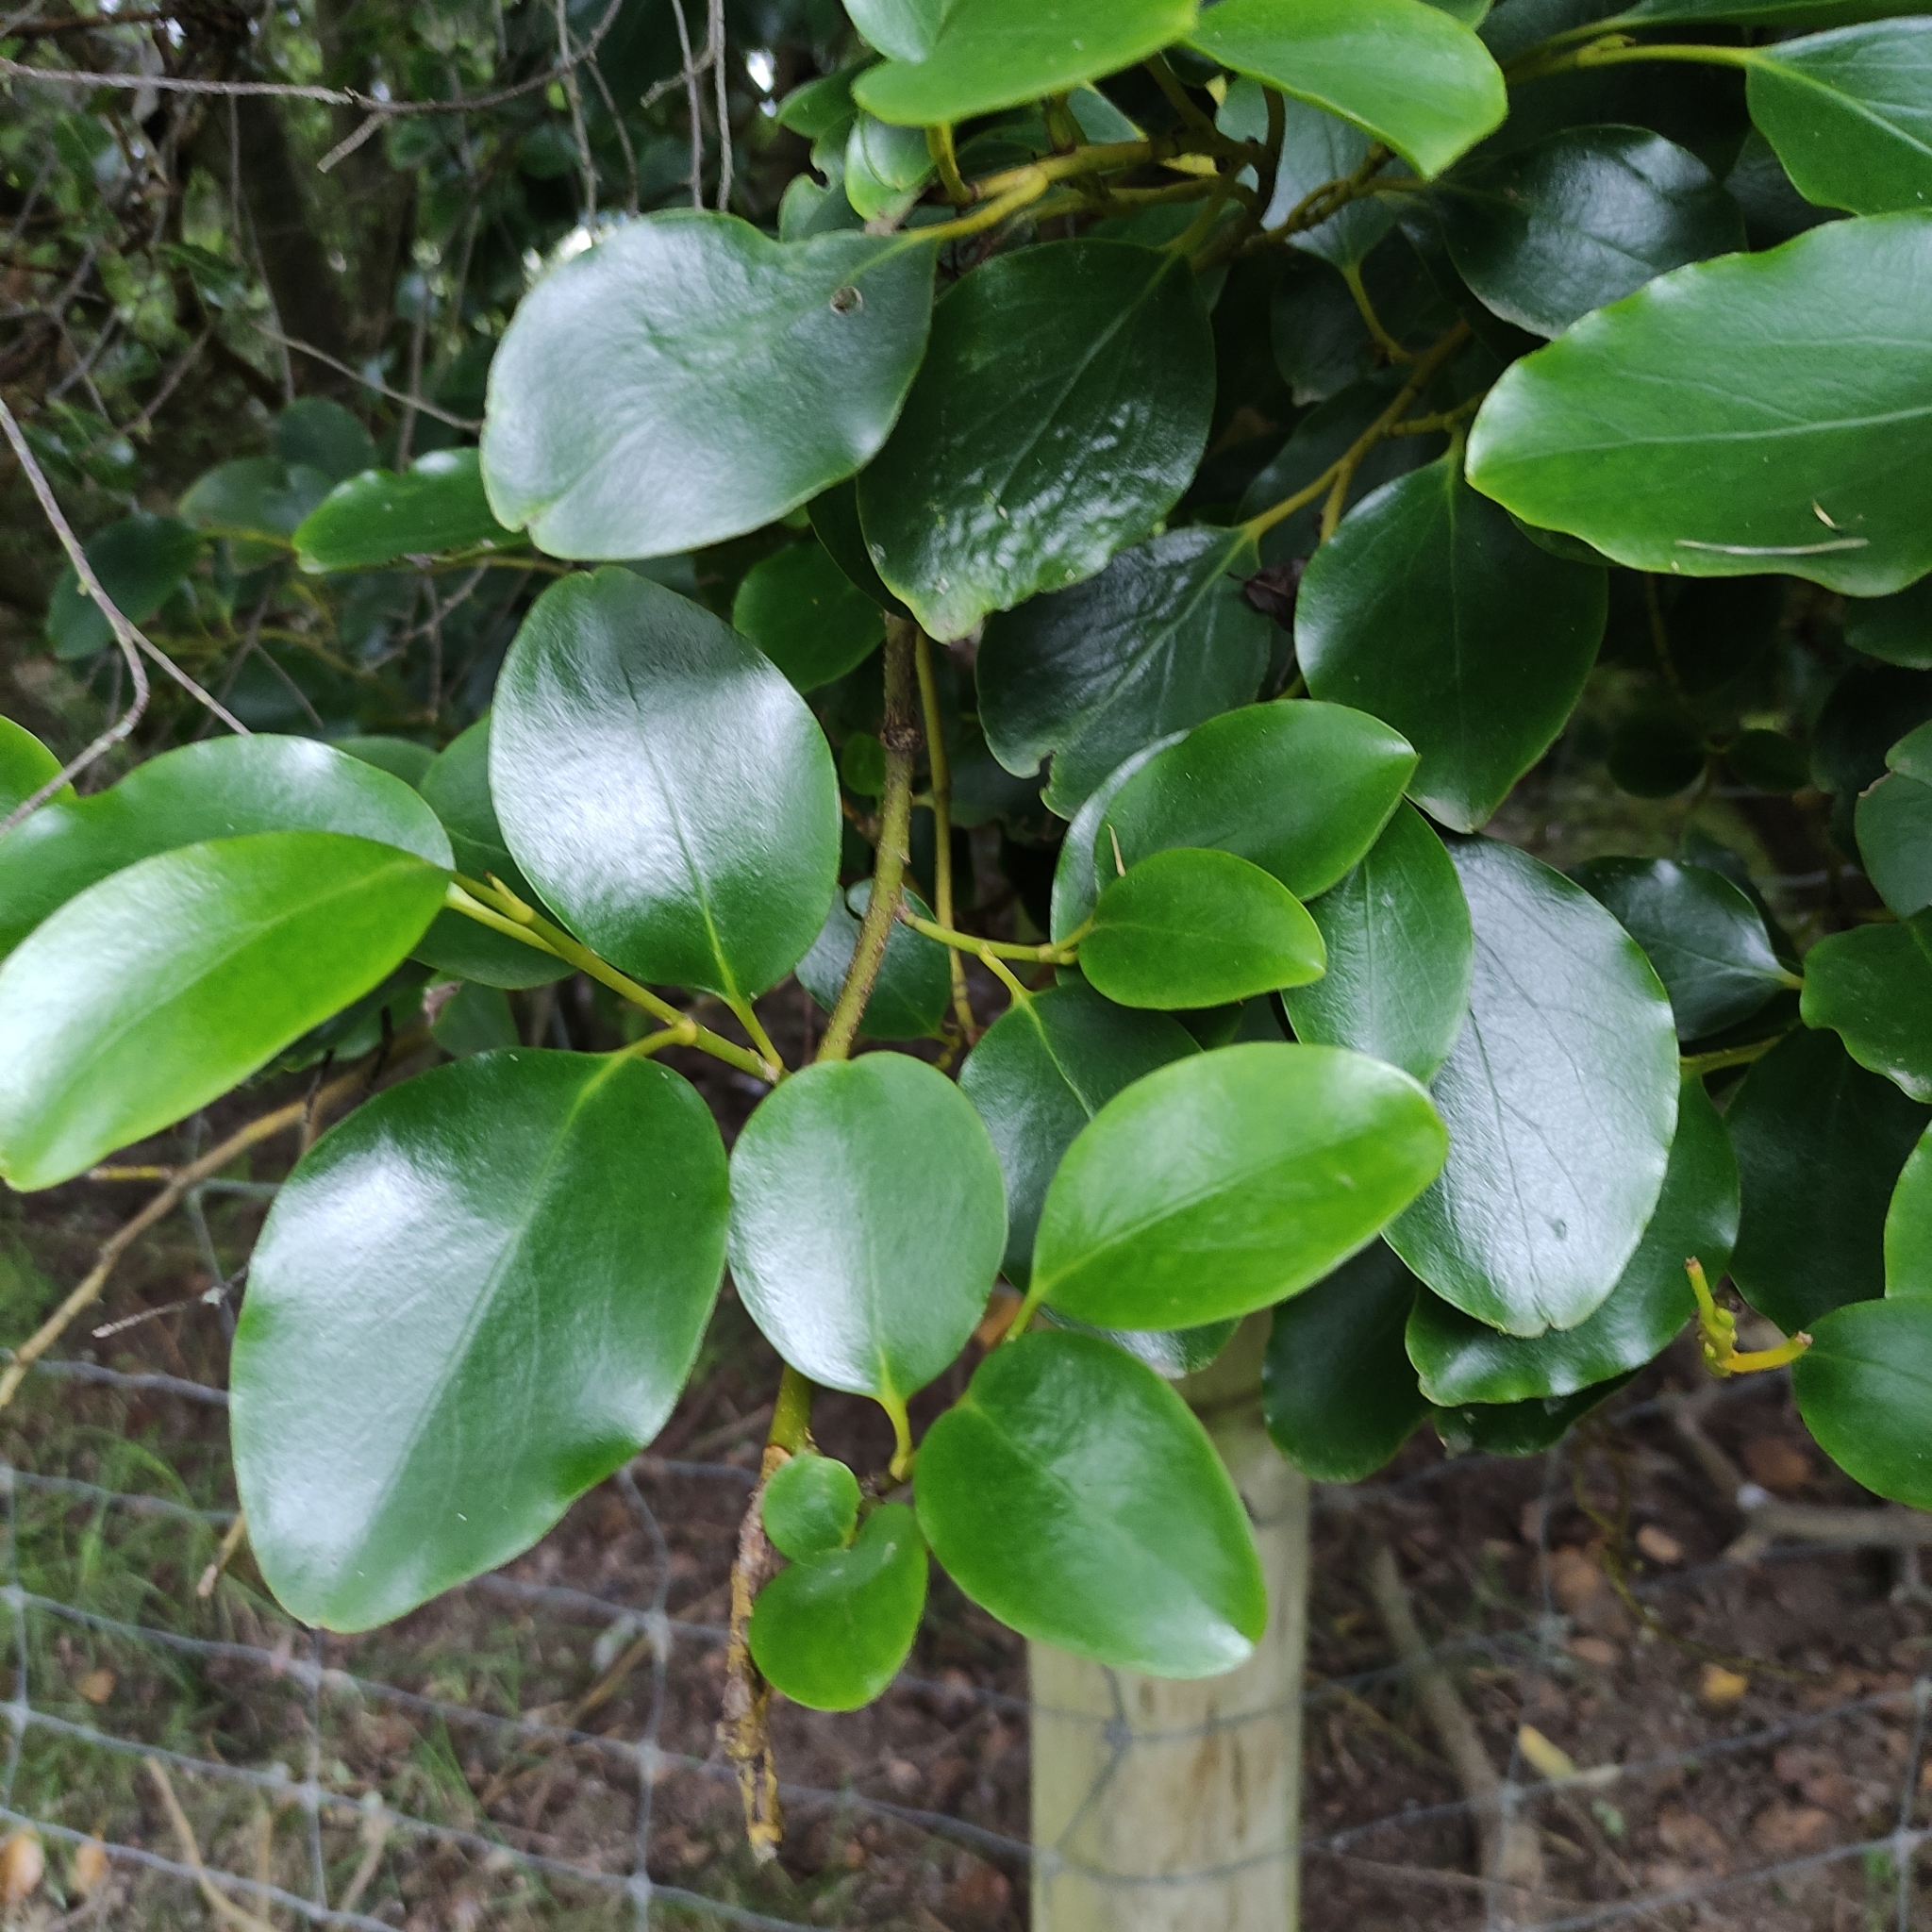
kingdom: Plantae
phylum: Tracheophyta
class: Magnoliopsida
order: Apiales
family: Griseliniaceae
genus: Griselinia
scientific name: Griselinia littoralis
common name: New zealand broadleaf
